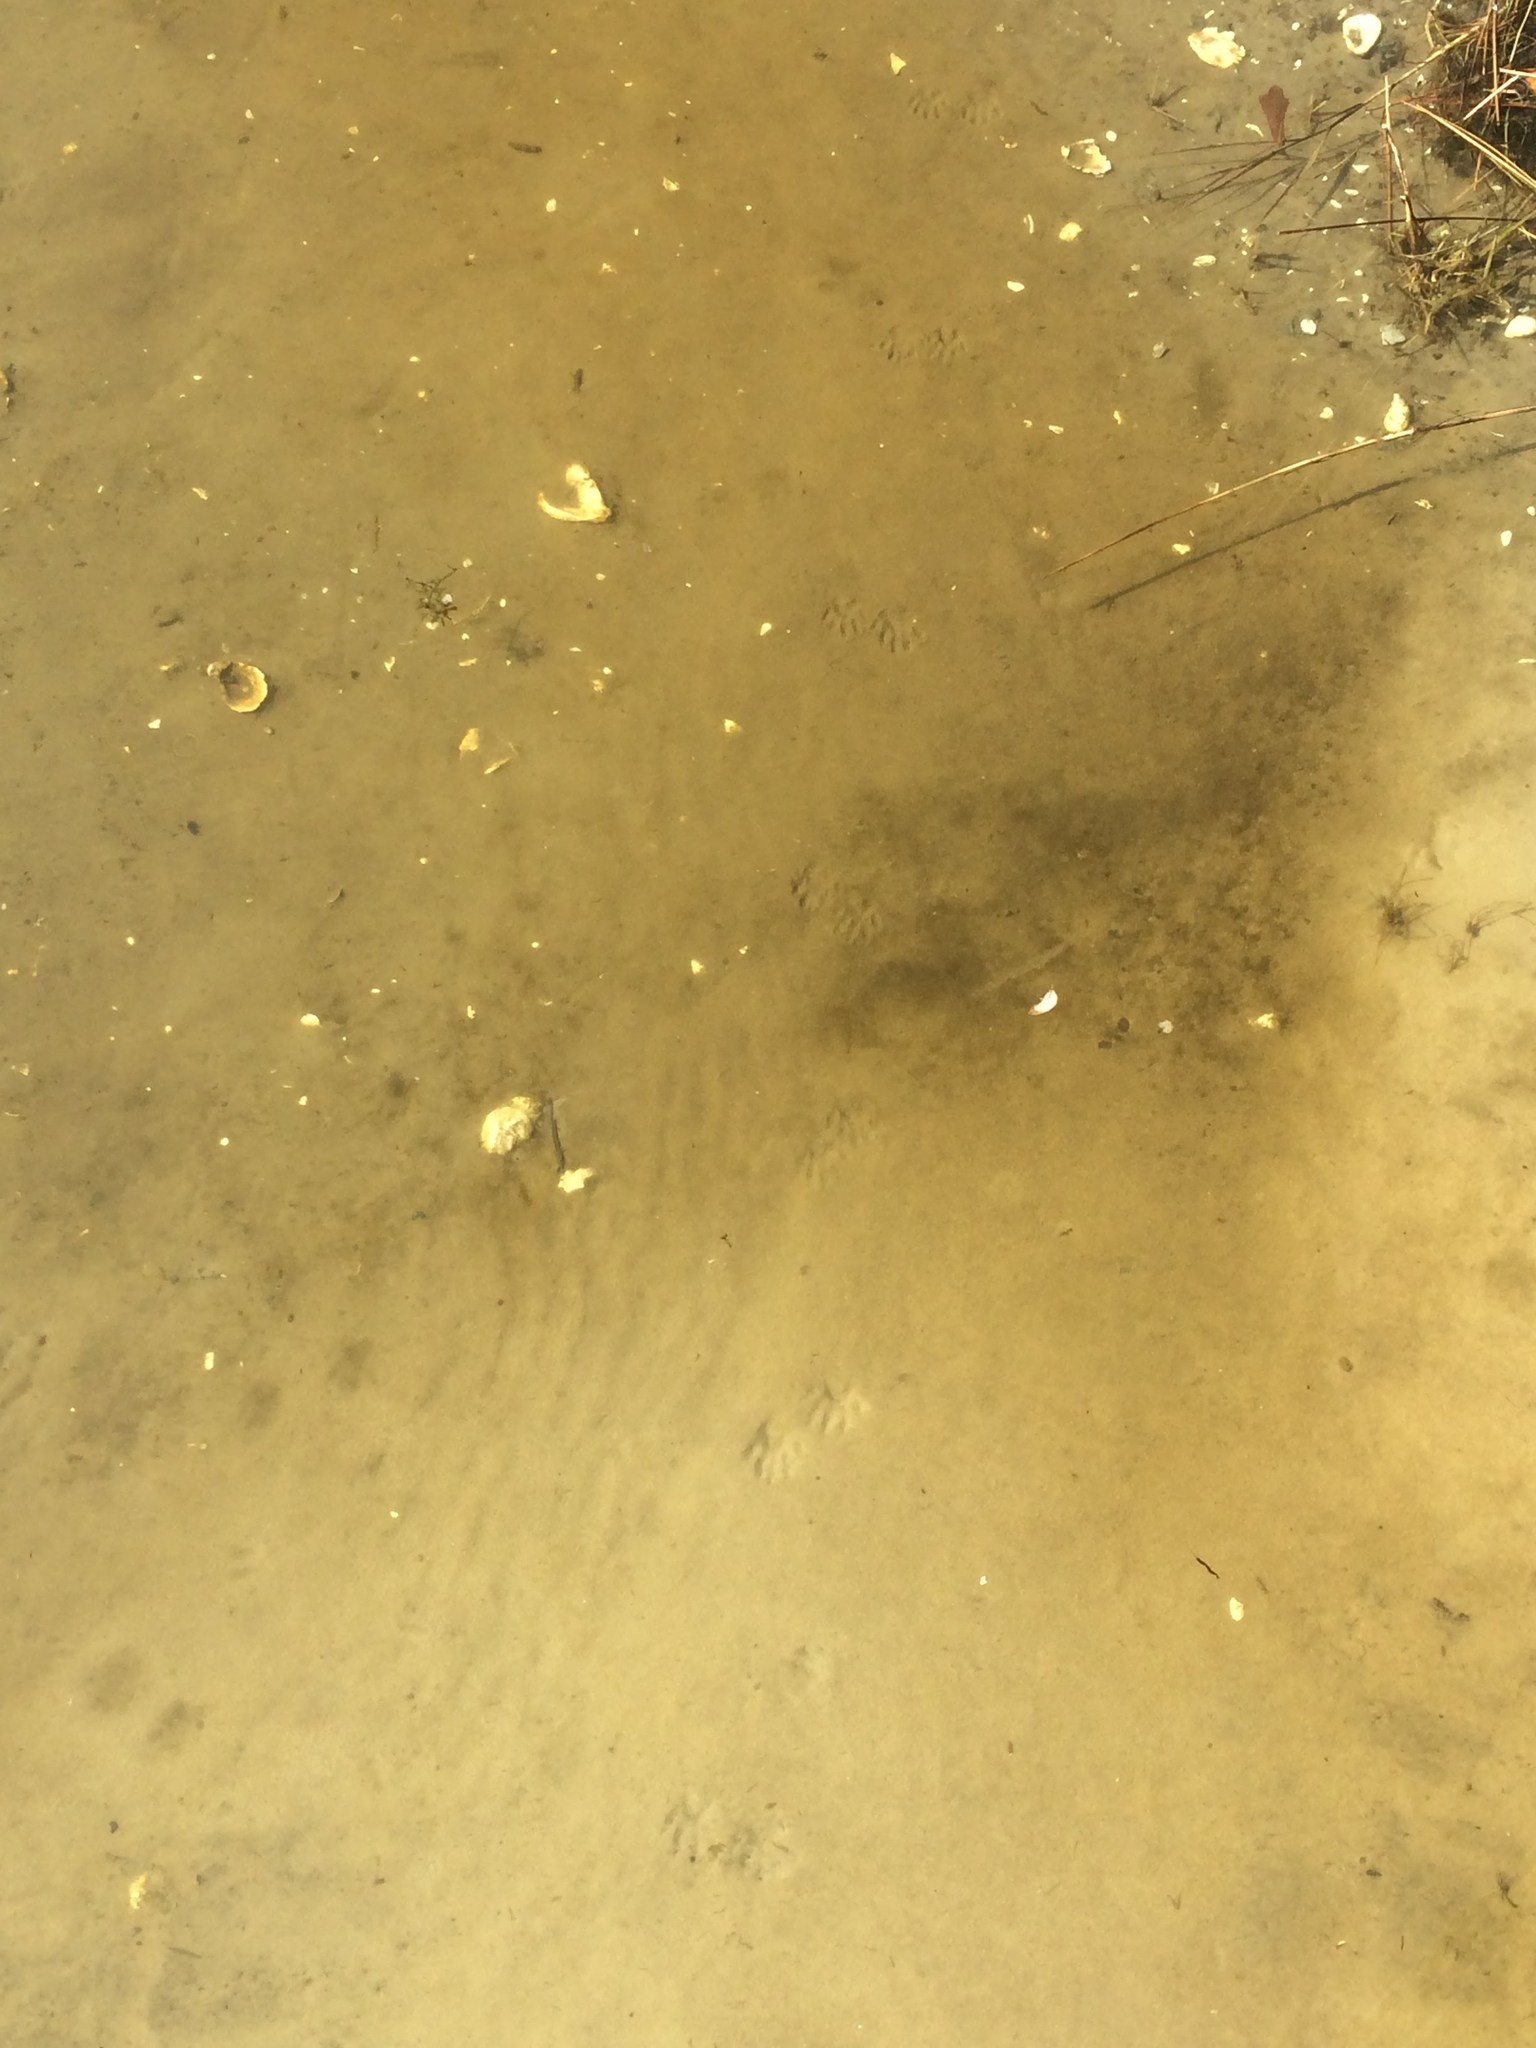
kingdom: Animalia
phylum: Chordata
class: Mammalia
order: Carnivora
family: Procyonidae
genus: Procyon
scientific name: Procyon lotor
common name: Raccoon
